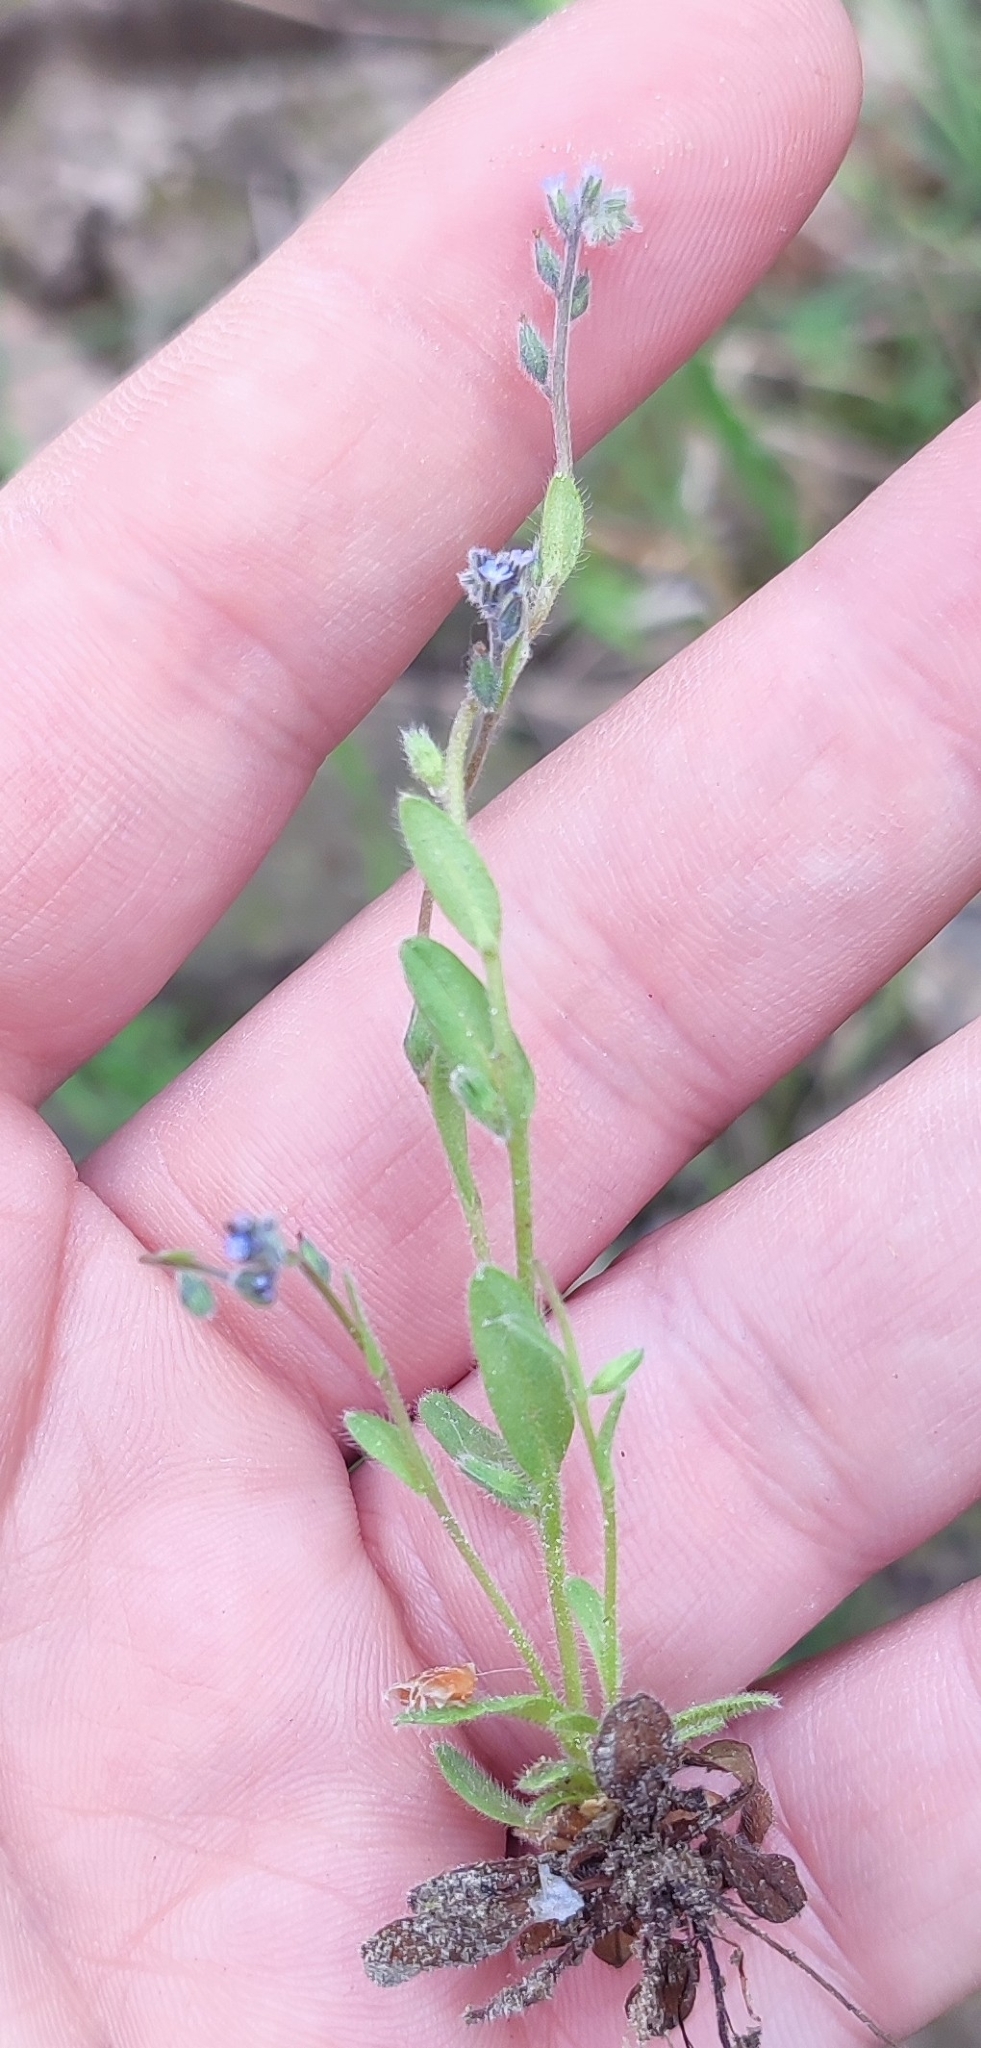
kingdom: Plantae
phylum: Tracheophyta
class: Magnoliopsida
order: Boraginales
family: Boraginaceae
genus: Myosotis
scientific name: Myosotis stricta
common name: Strict forget-me-not
